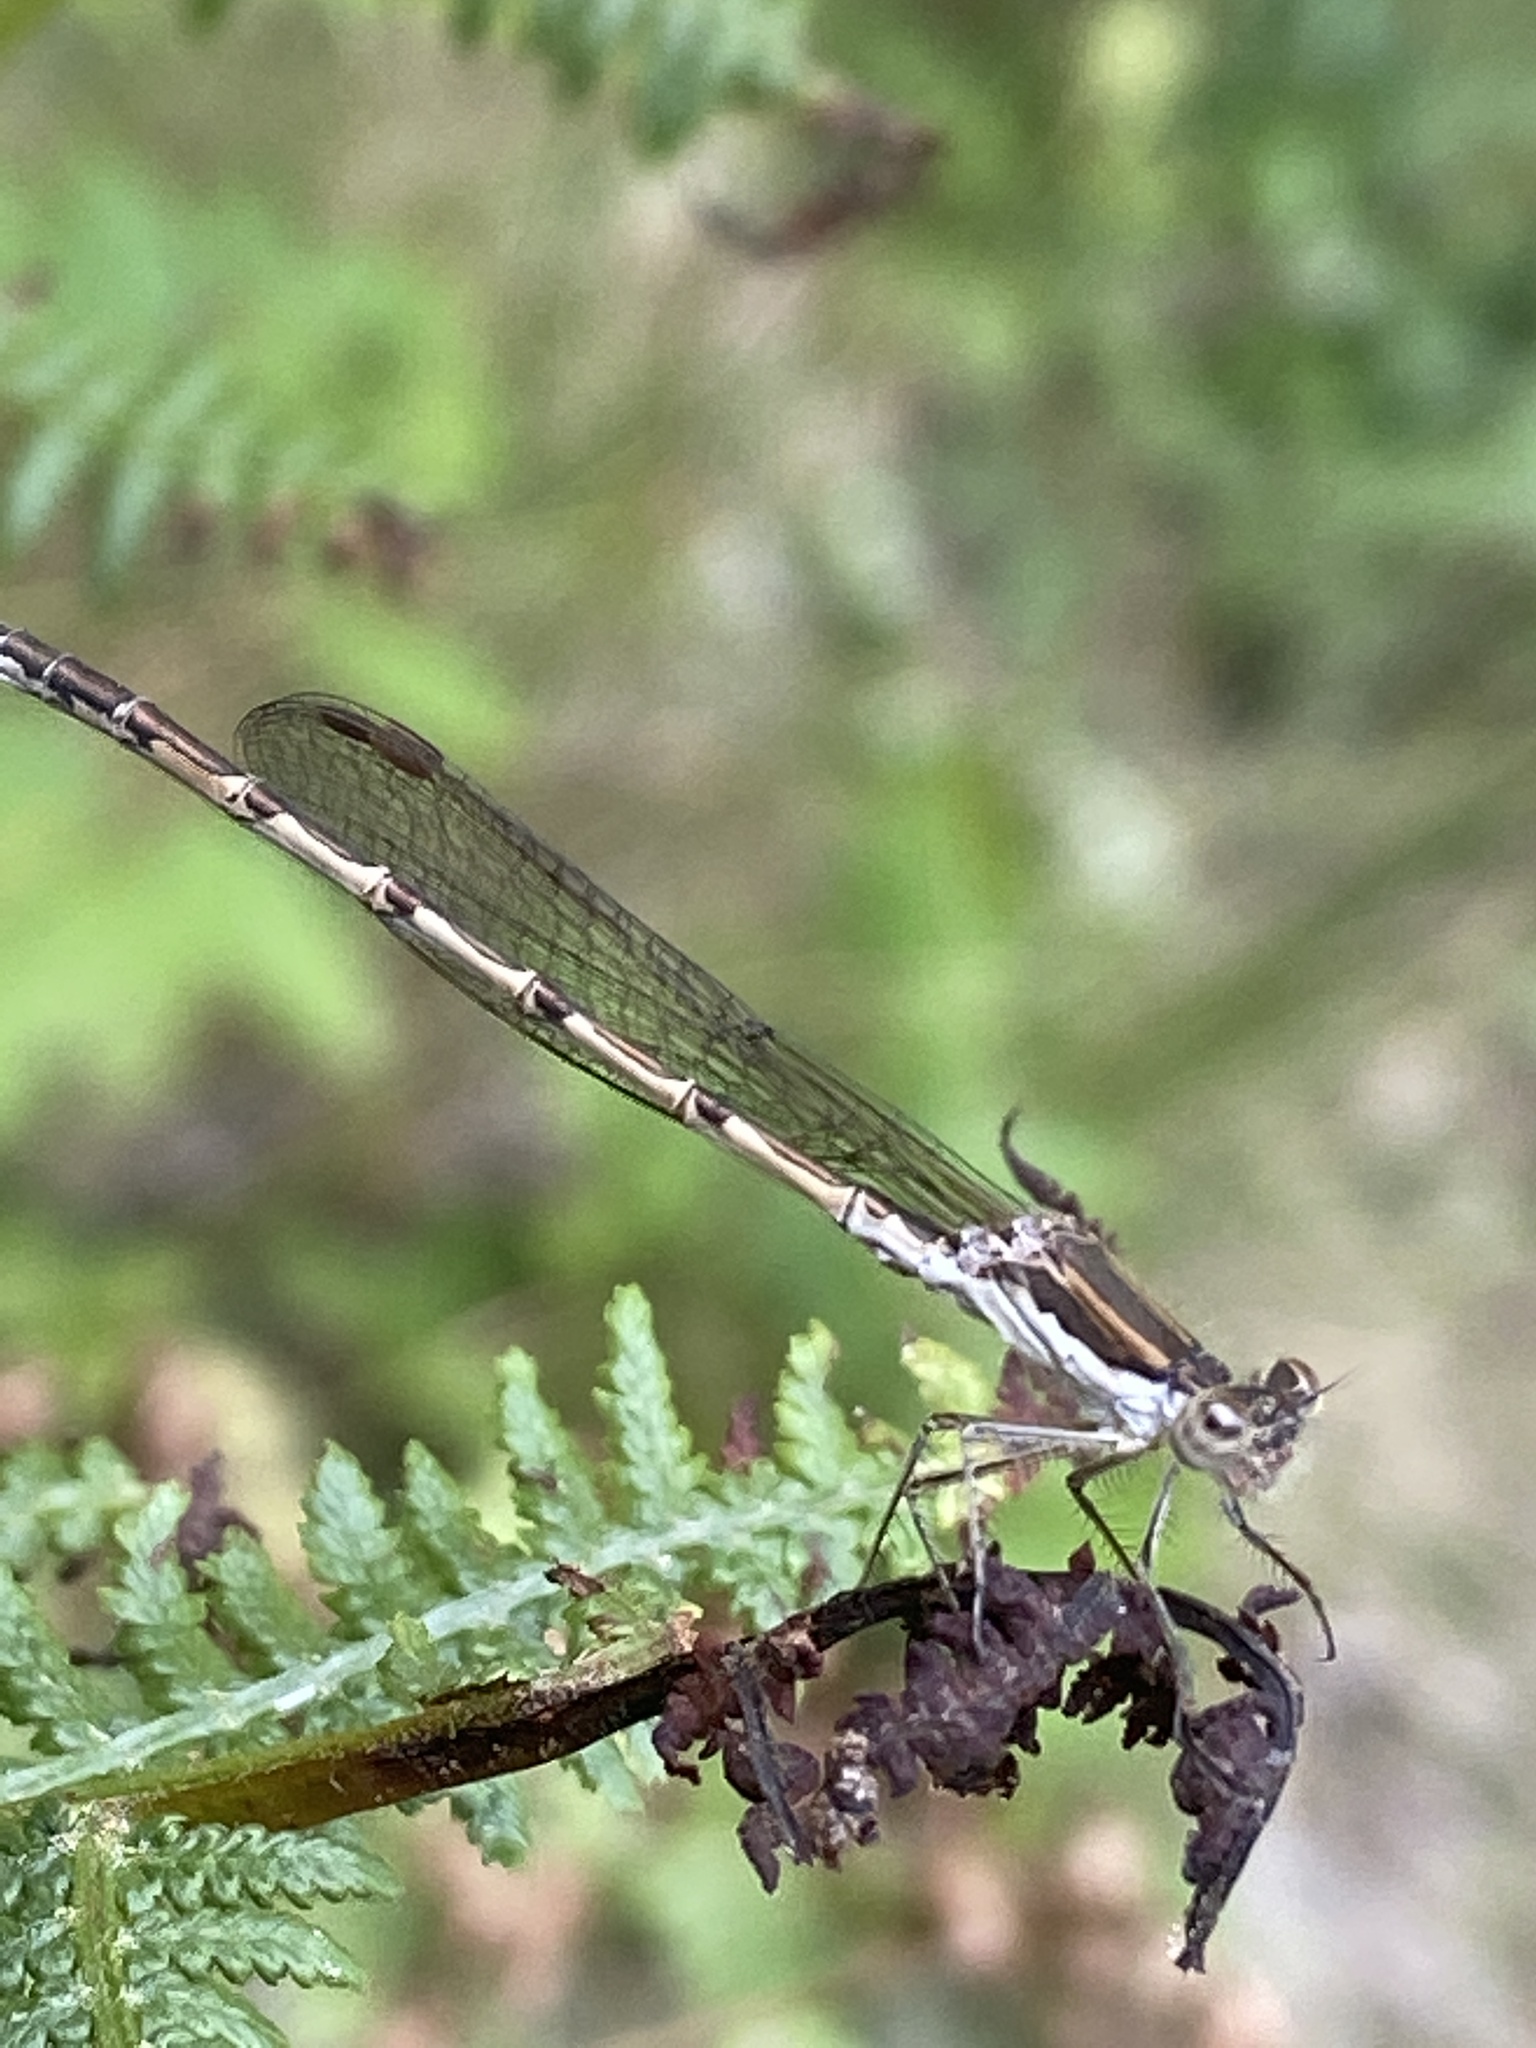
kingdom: Animalia
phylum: Arthropoda
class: Insecta
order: Odonata
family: Lestidae
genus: Sympecma
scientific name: Sympecma fusca
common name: Common winter damsel
